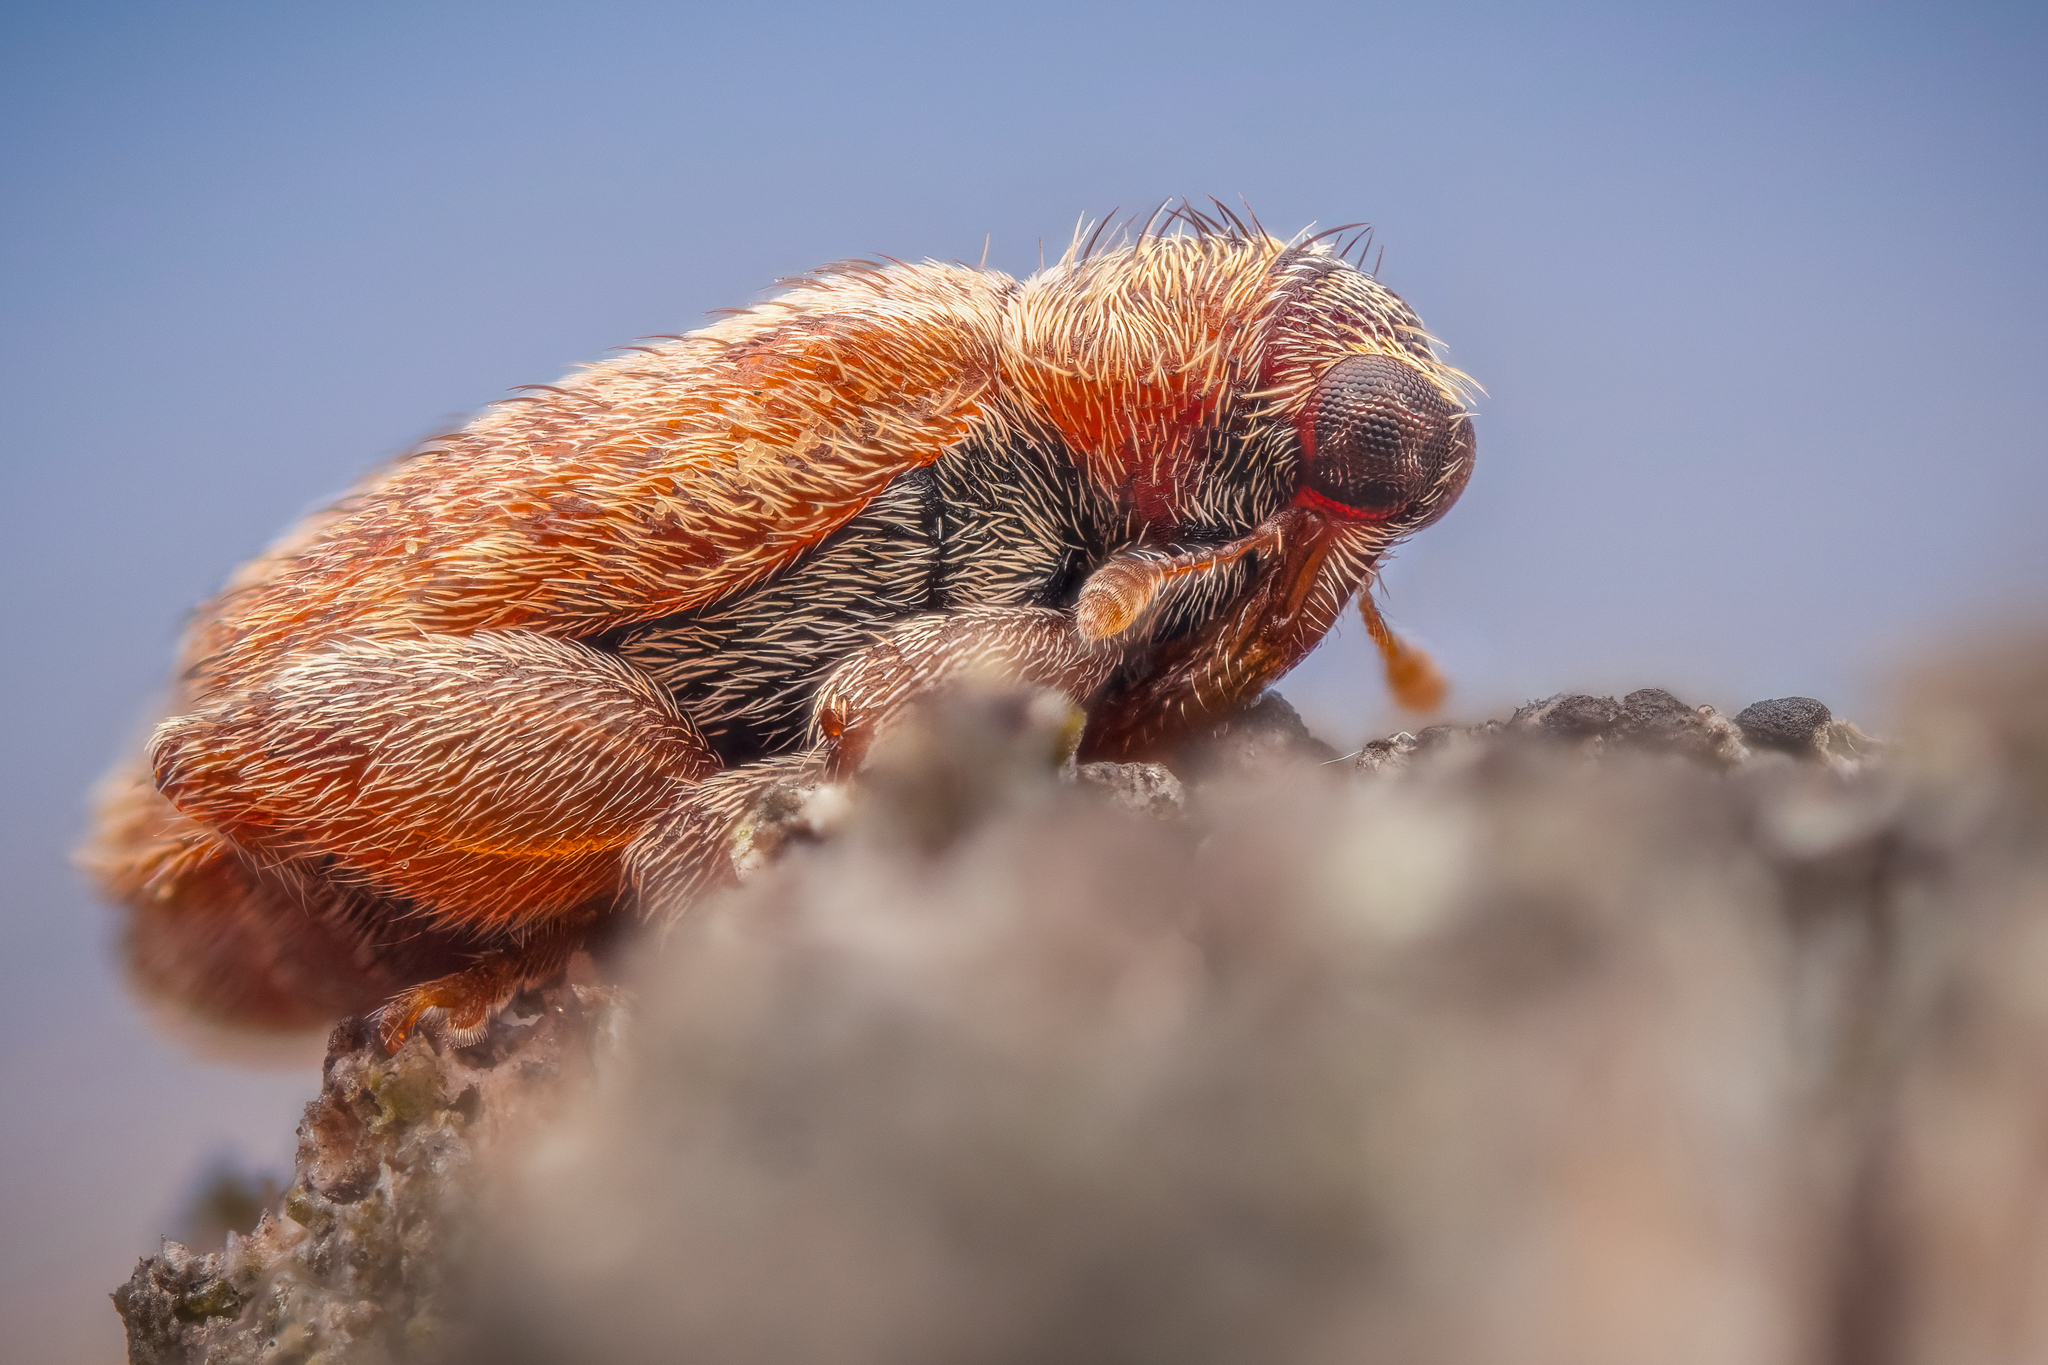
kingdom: Animalia
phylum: Arthropoda
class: Insecta
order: Coleoptera
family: Curculionidae
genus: Orchestes
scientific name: Orchestes quercus
